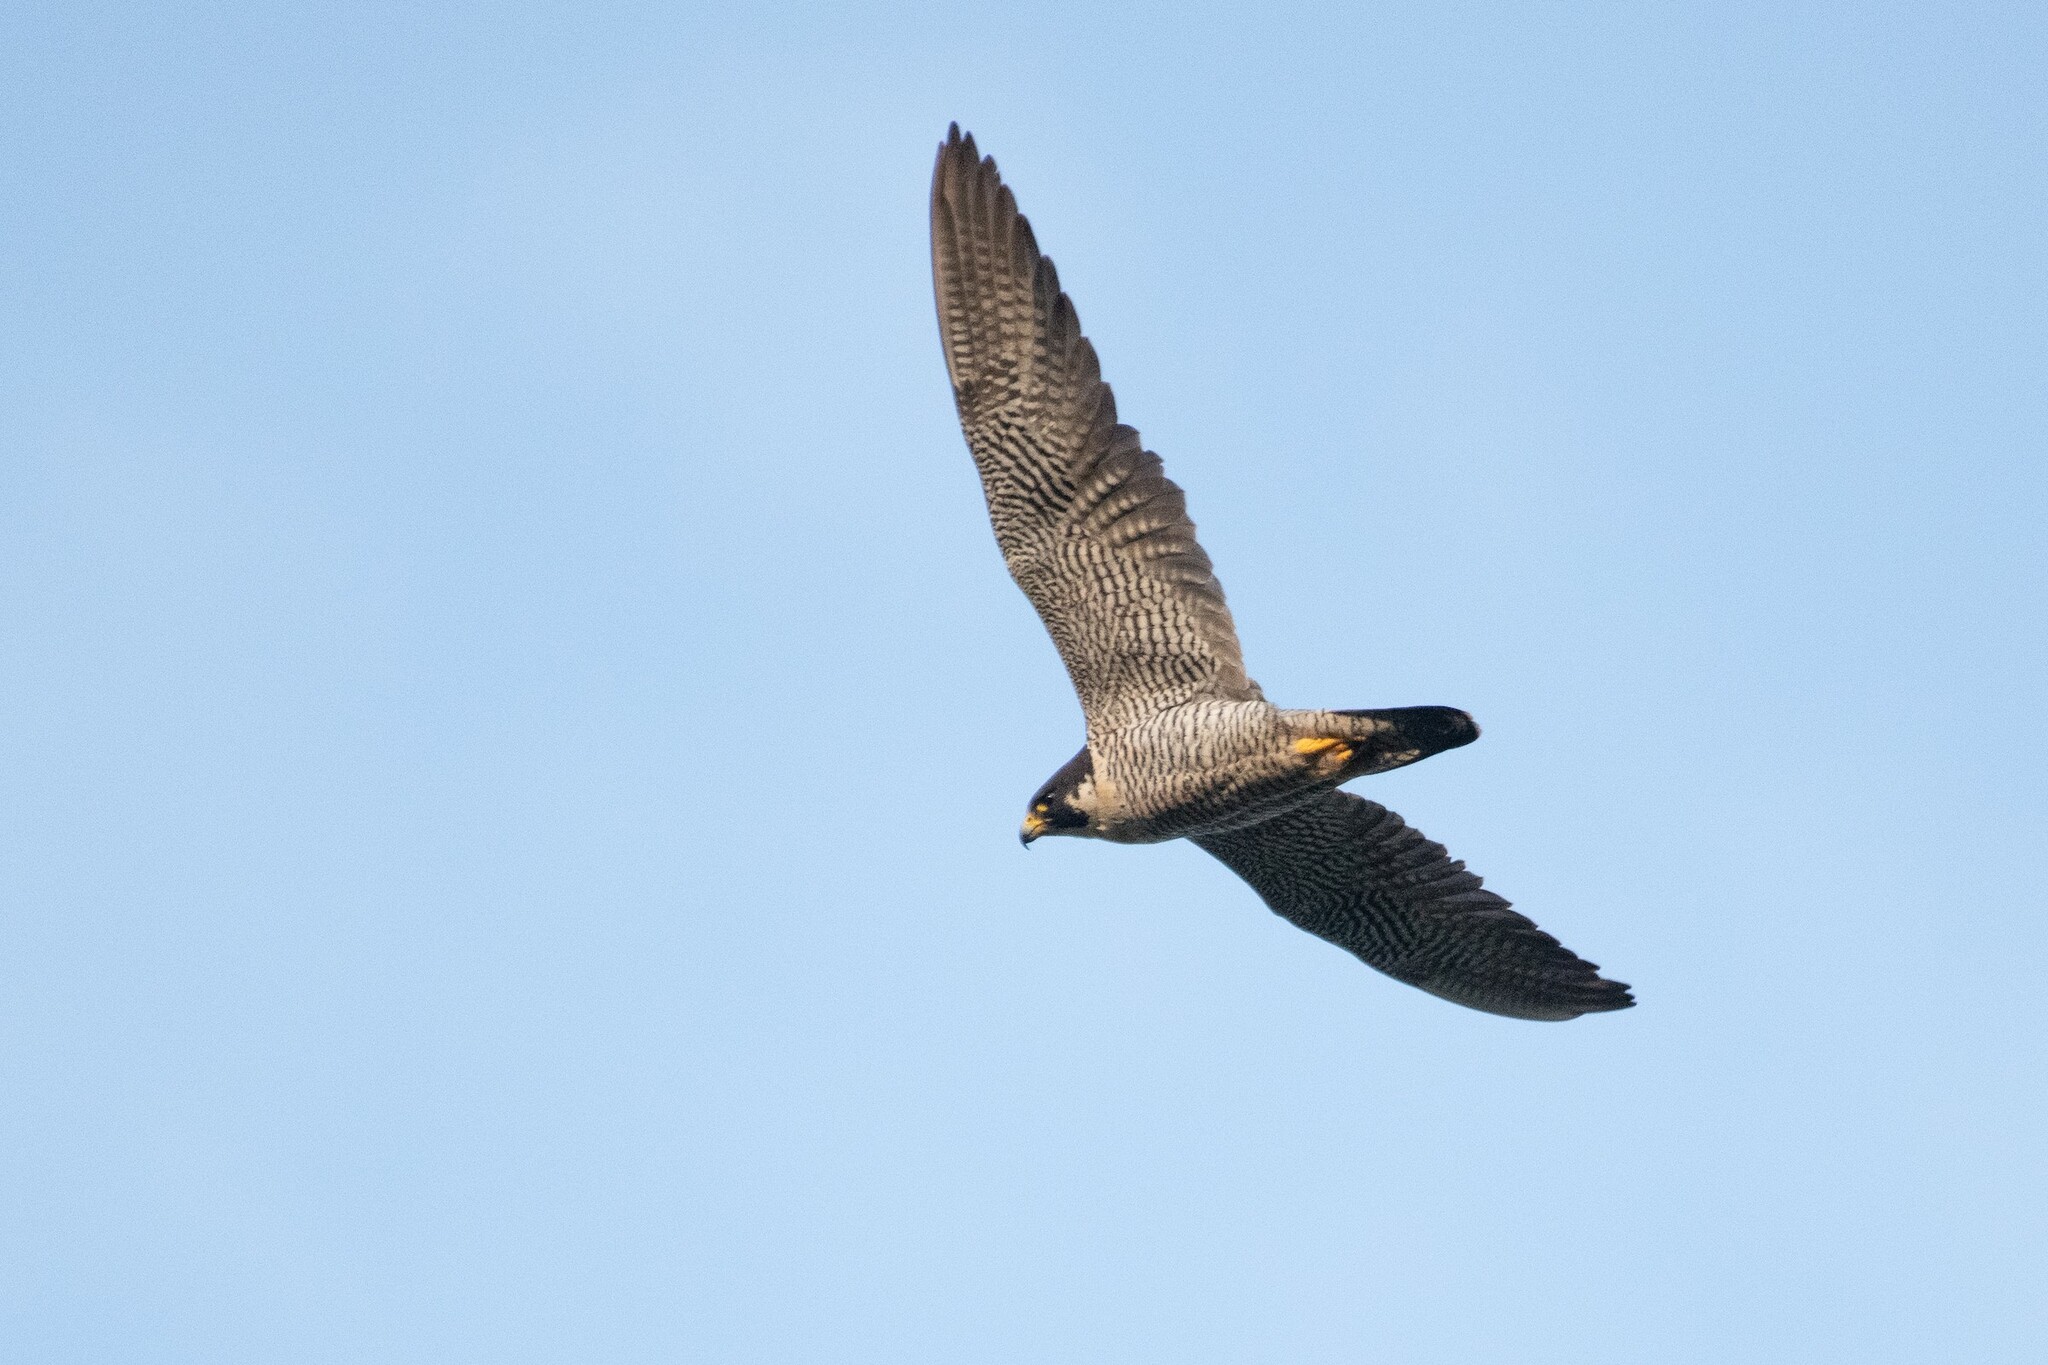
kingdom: Animalia
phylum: Chordata
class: Aves
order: Falconiformes
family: Falconidae
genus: Falco
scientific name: Falco peregrinus
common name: Peregrine falcon
